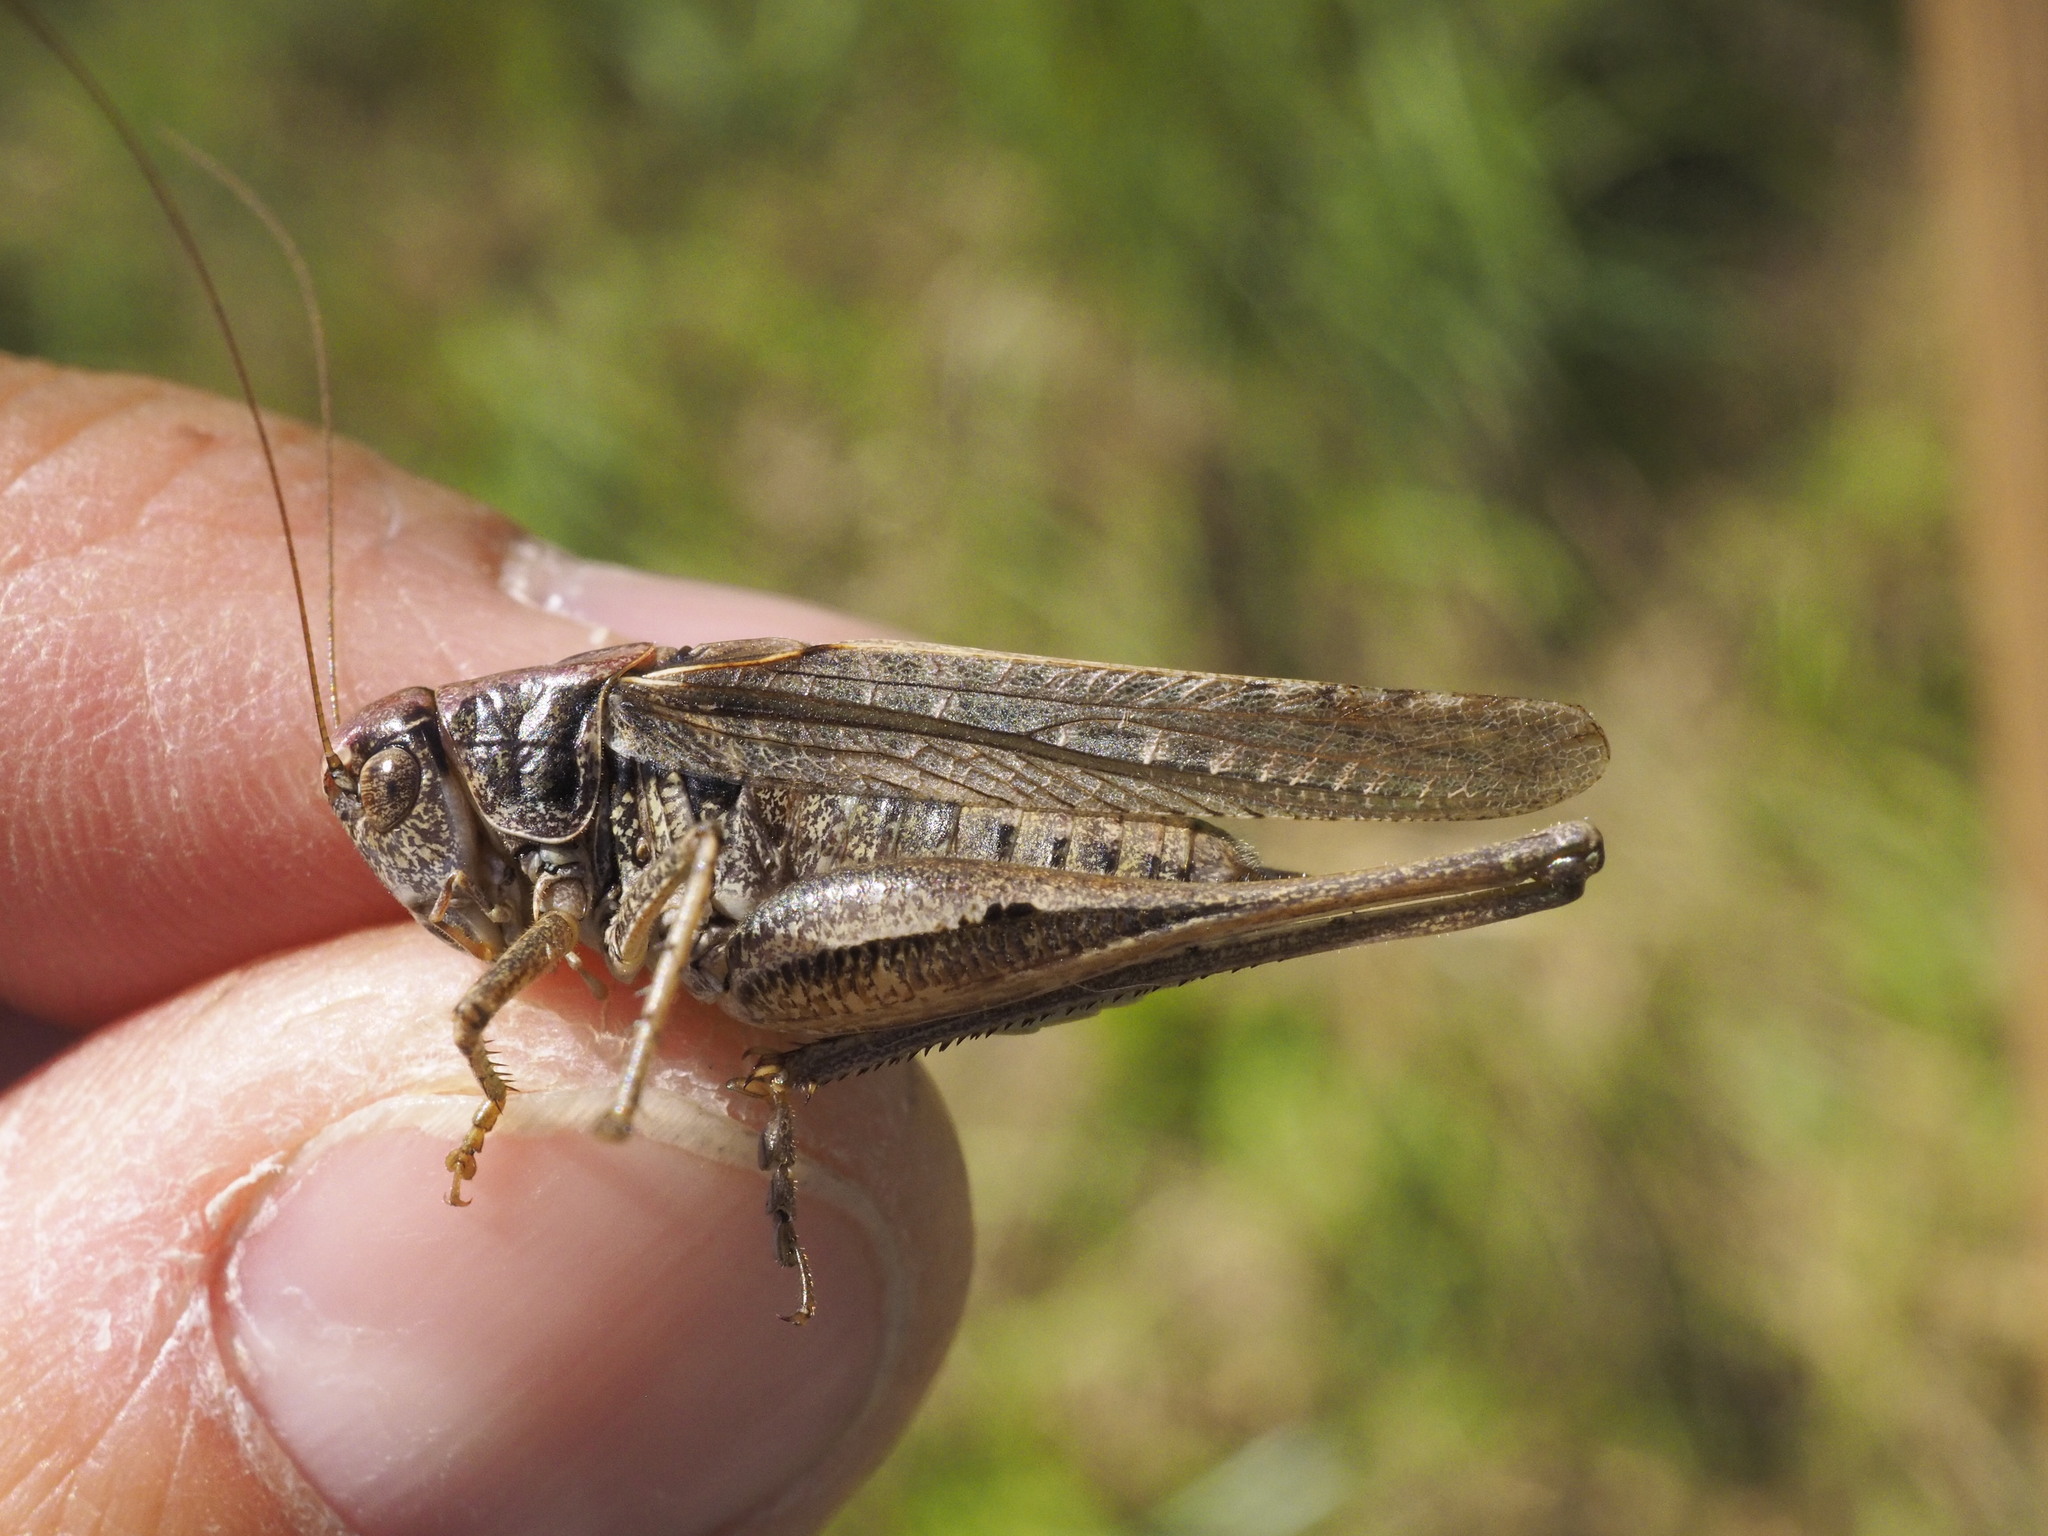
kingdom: Animalia
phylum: Arthropoda
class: Insecta
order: Orthoptera
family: Tettigoniidae
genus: Platycleis
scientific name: Platycleis albopunctata
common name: Grey bush-cricket
